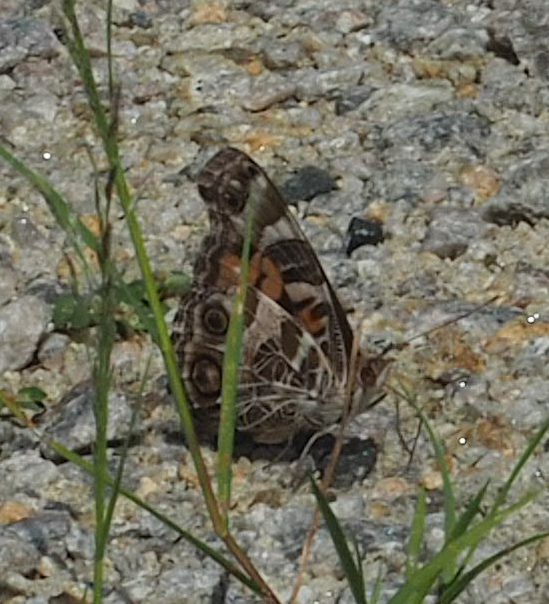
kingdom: Animalia
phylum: Arthropoda
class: Insecta
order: Lepidoptera
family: Nymphalidae
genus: Vanessa
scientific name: Vanessa virginiensis
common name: American lady
